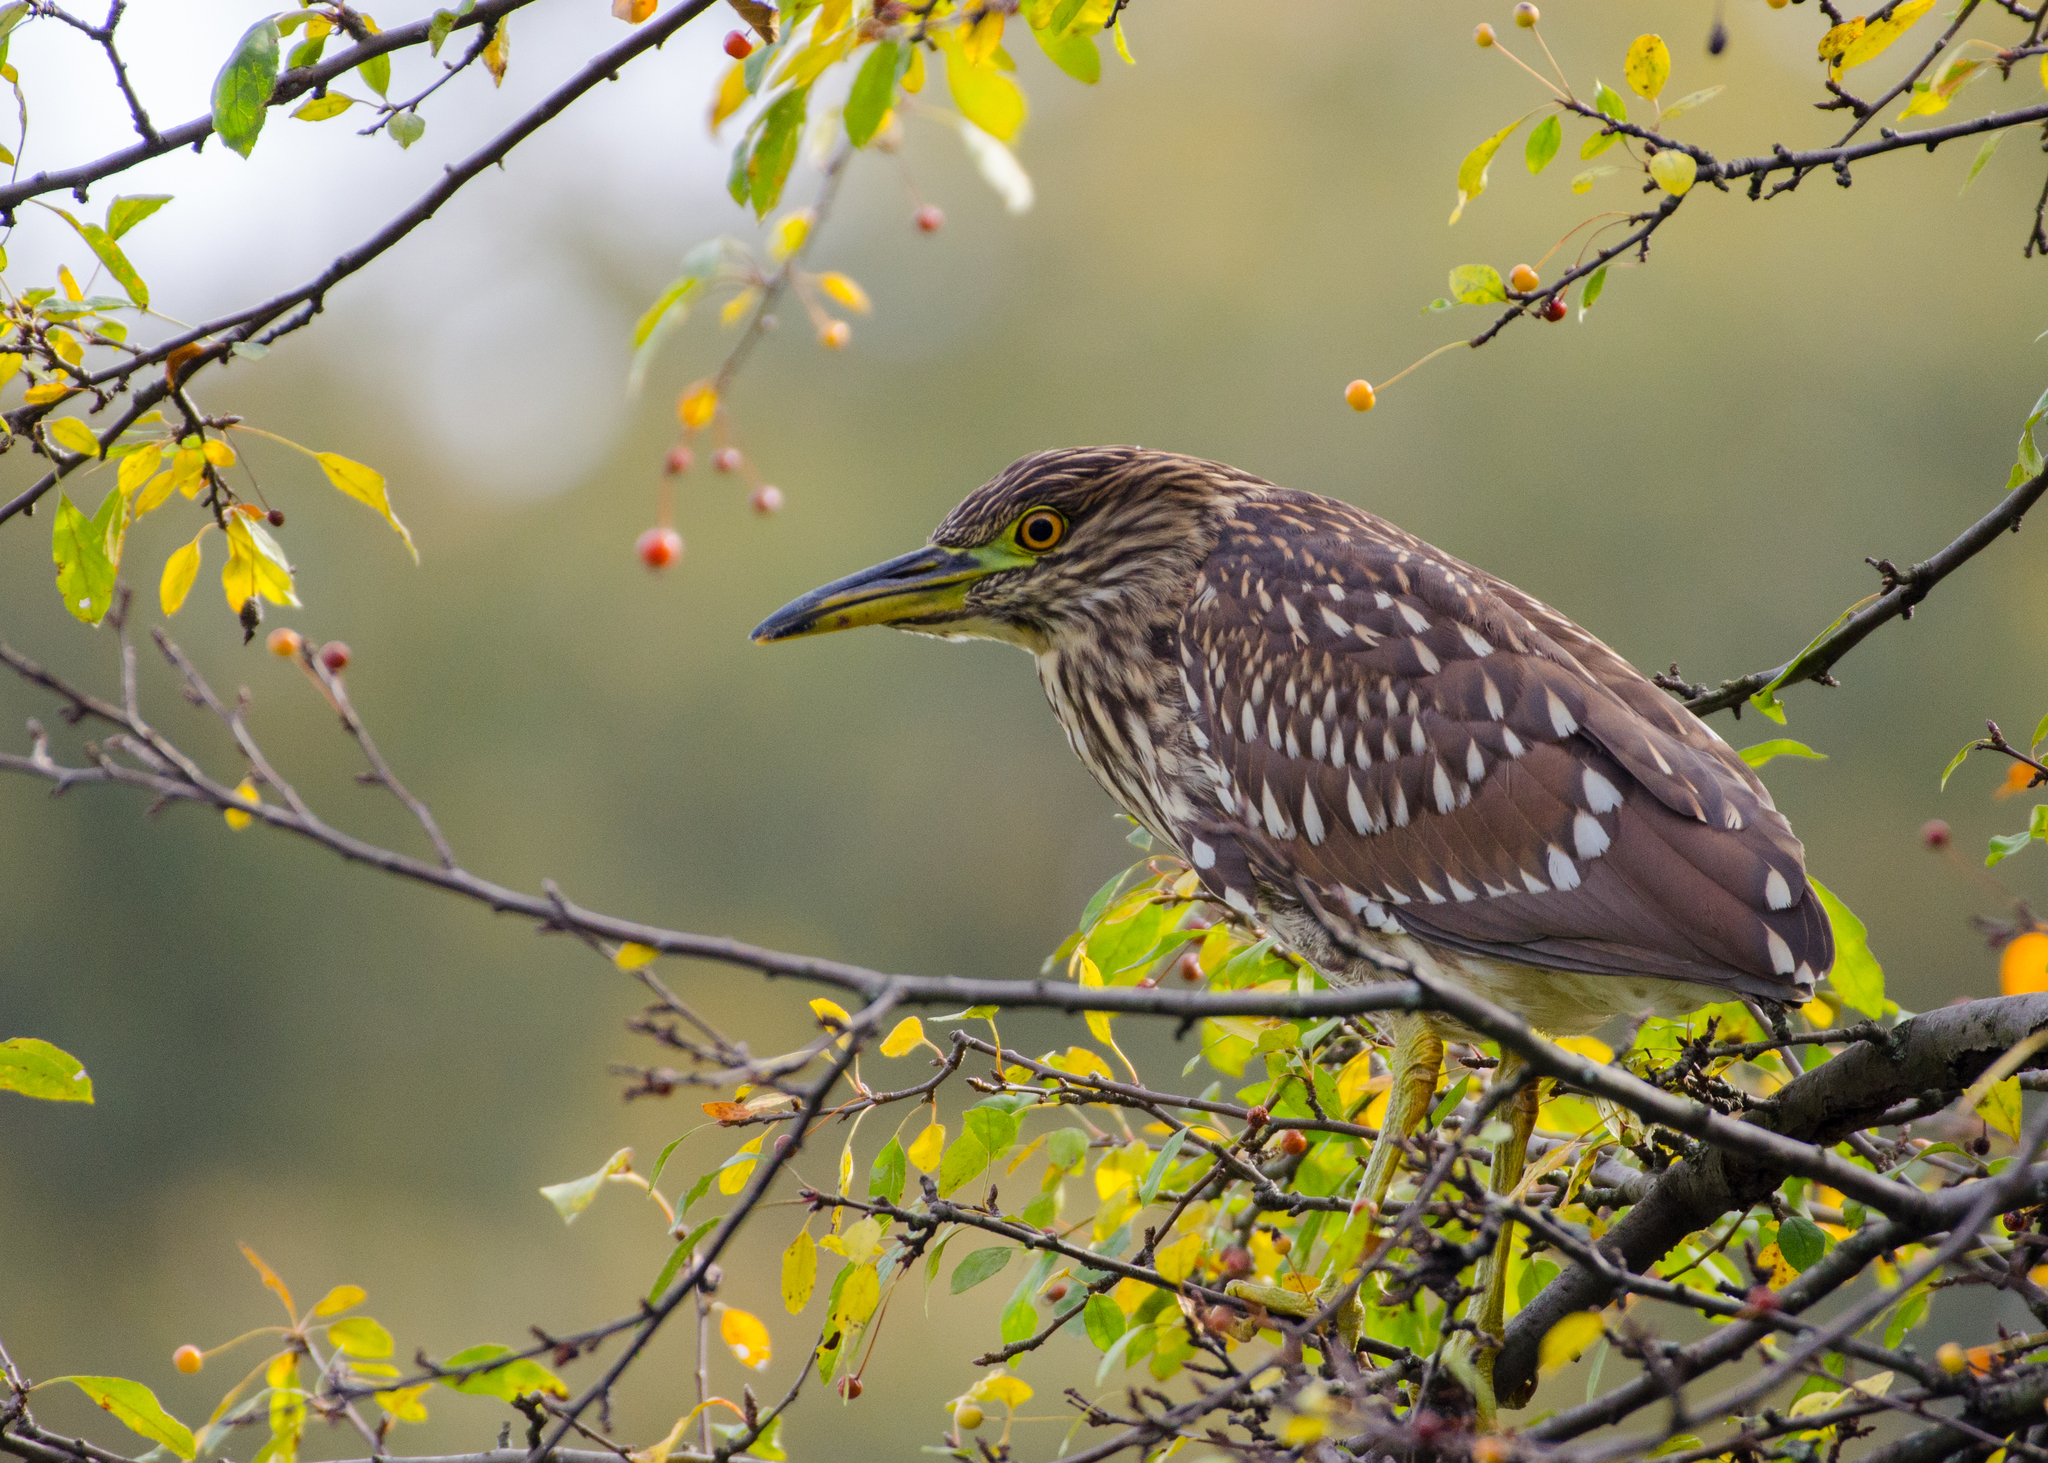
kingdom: Animalia
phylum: Chordata
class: Aves
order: Pelecaniformes
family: Ardeidae
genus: Nycticorax
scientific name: Nycticorax nycticorax
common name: Black-crowned night heron
